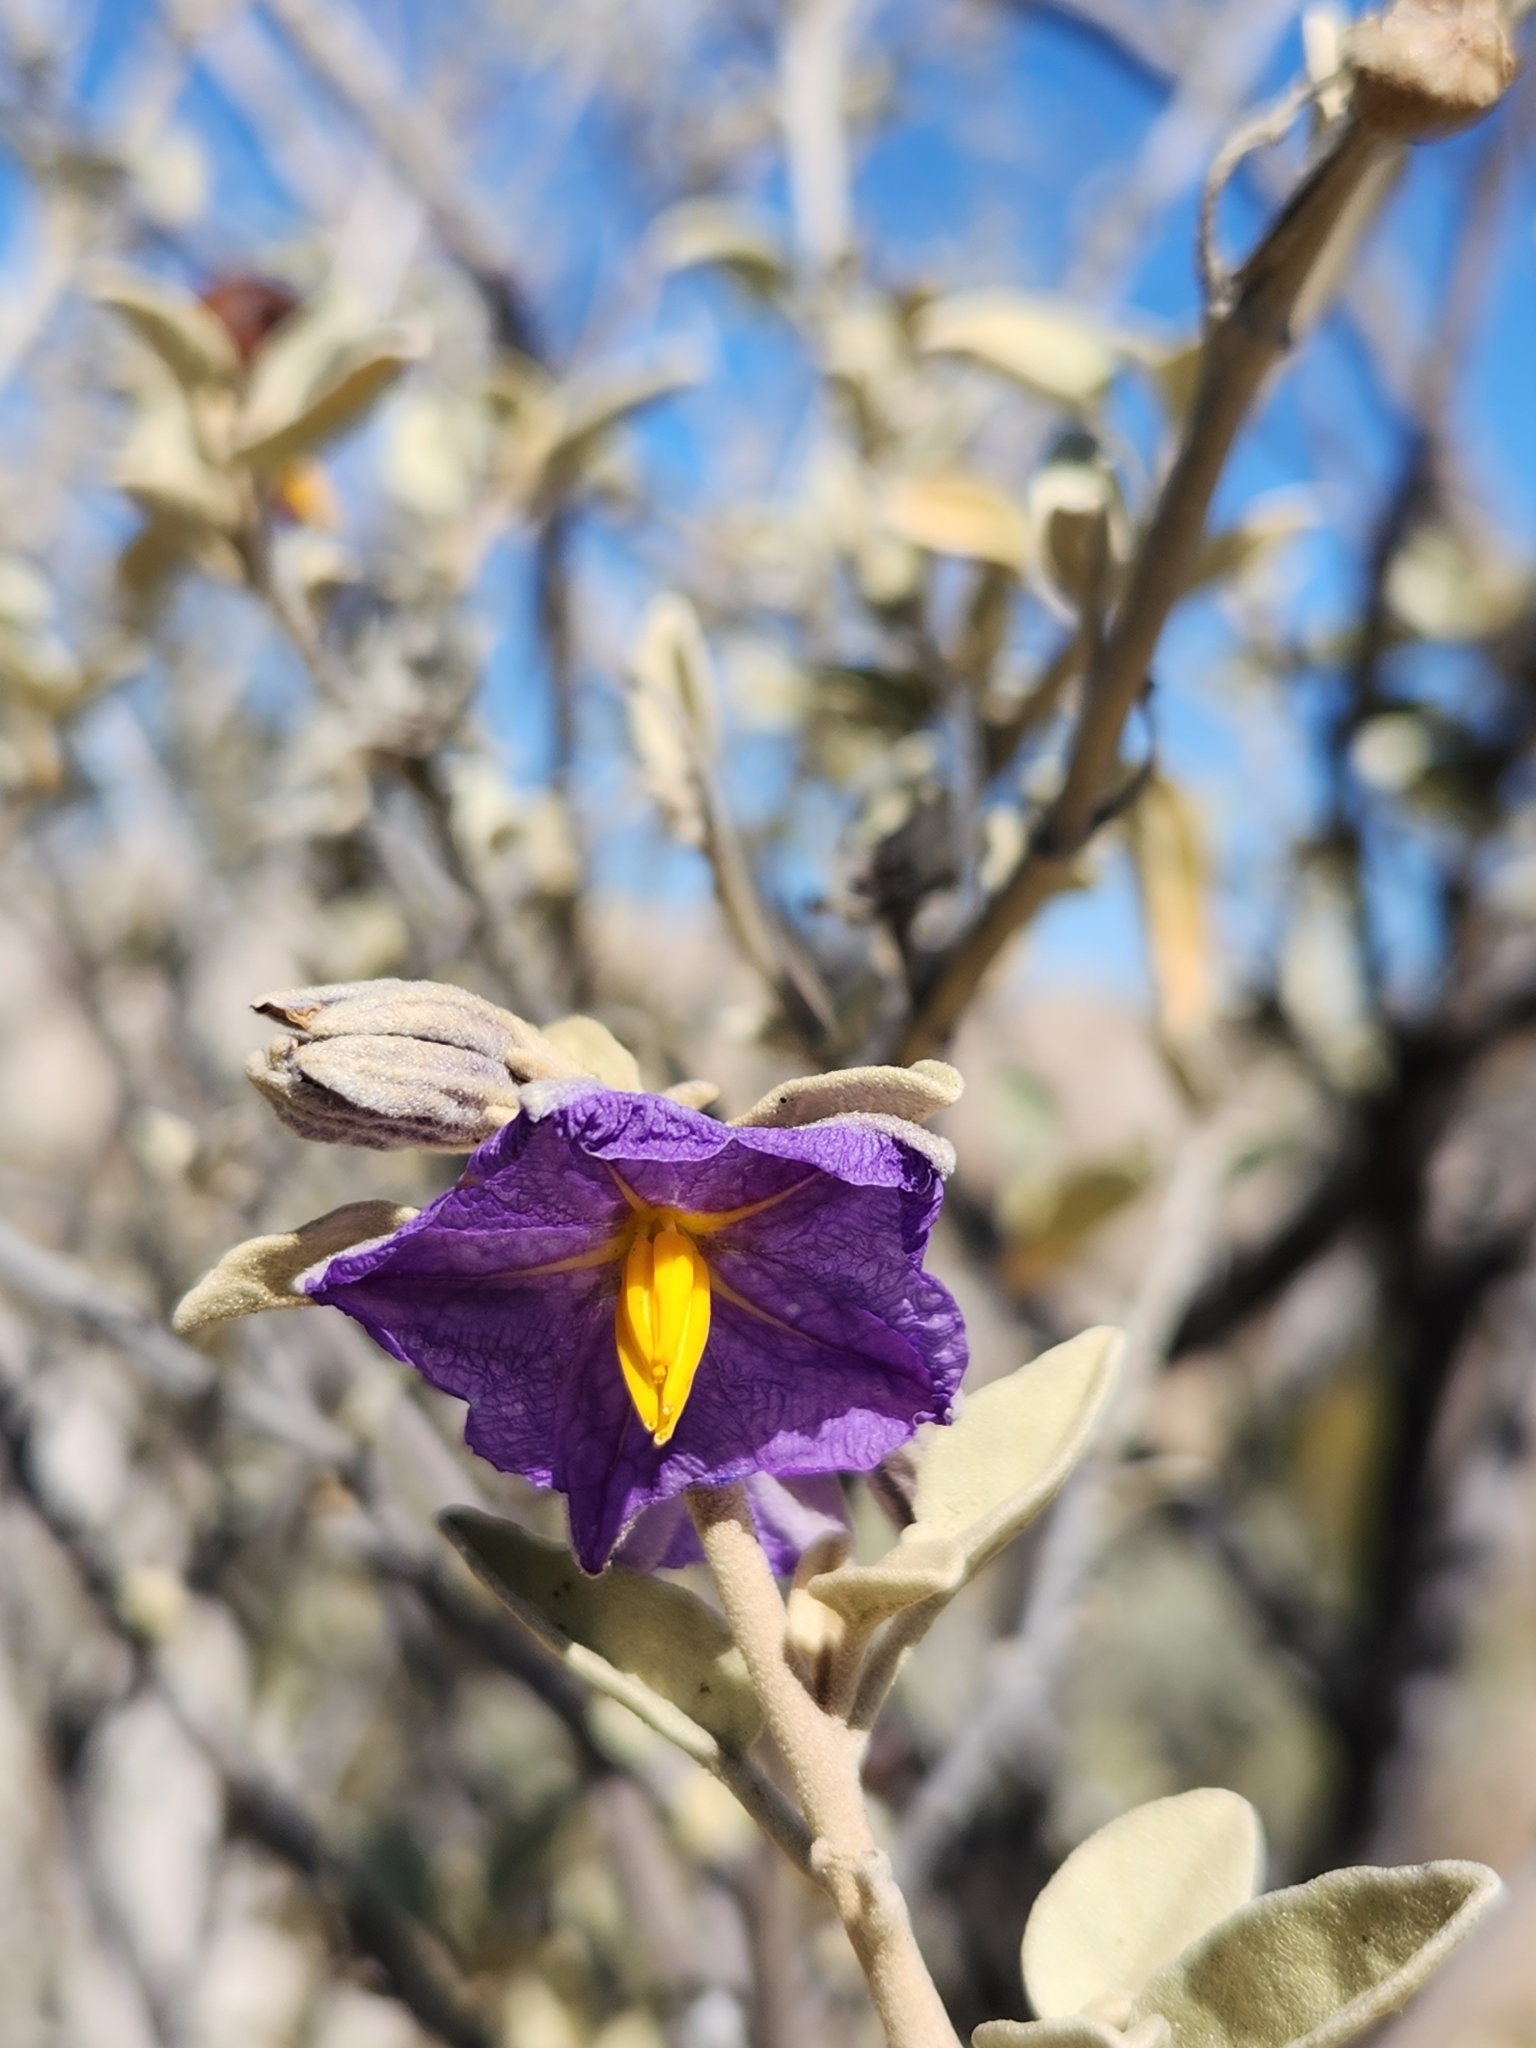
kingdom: Plantae
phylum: Tracheophyta
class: Magnoliopsida
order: Solanales
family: Solanaceae
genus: Solanum
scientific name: Solanum hindsianum
